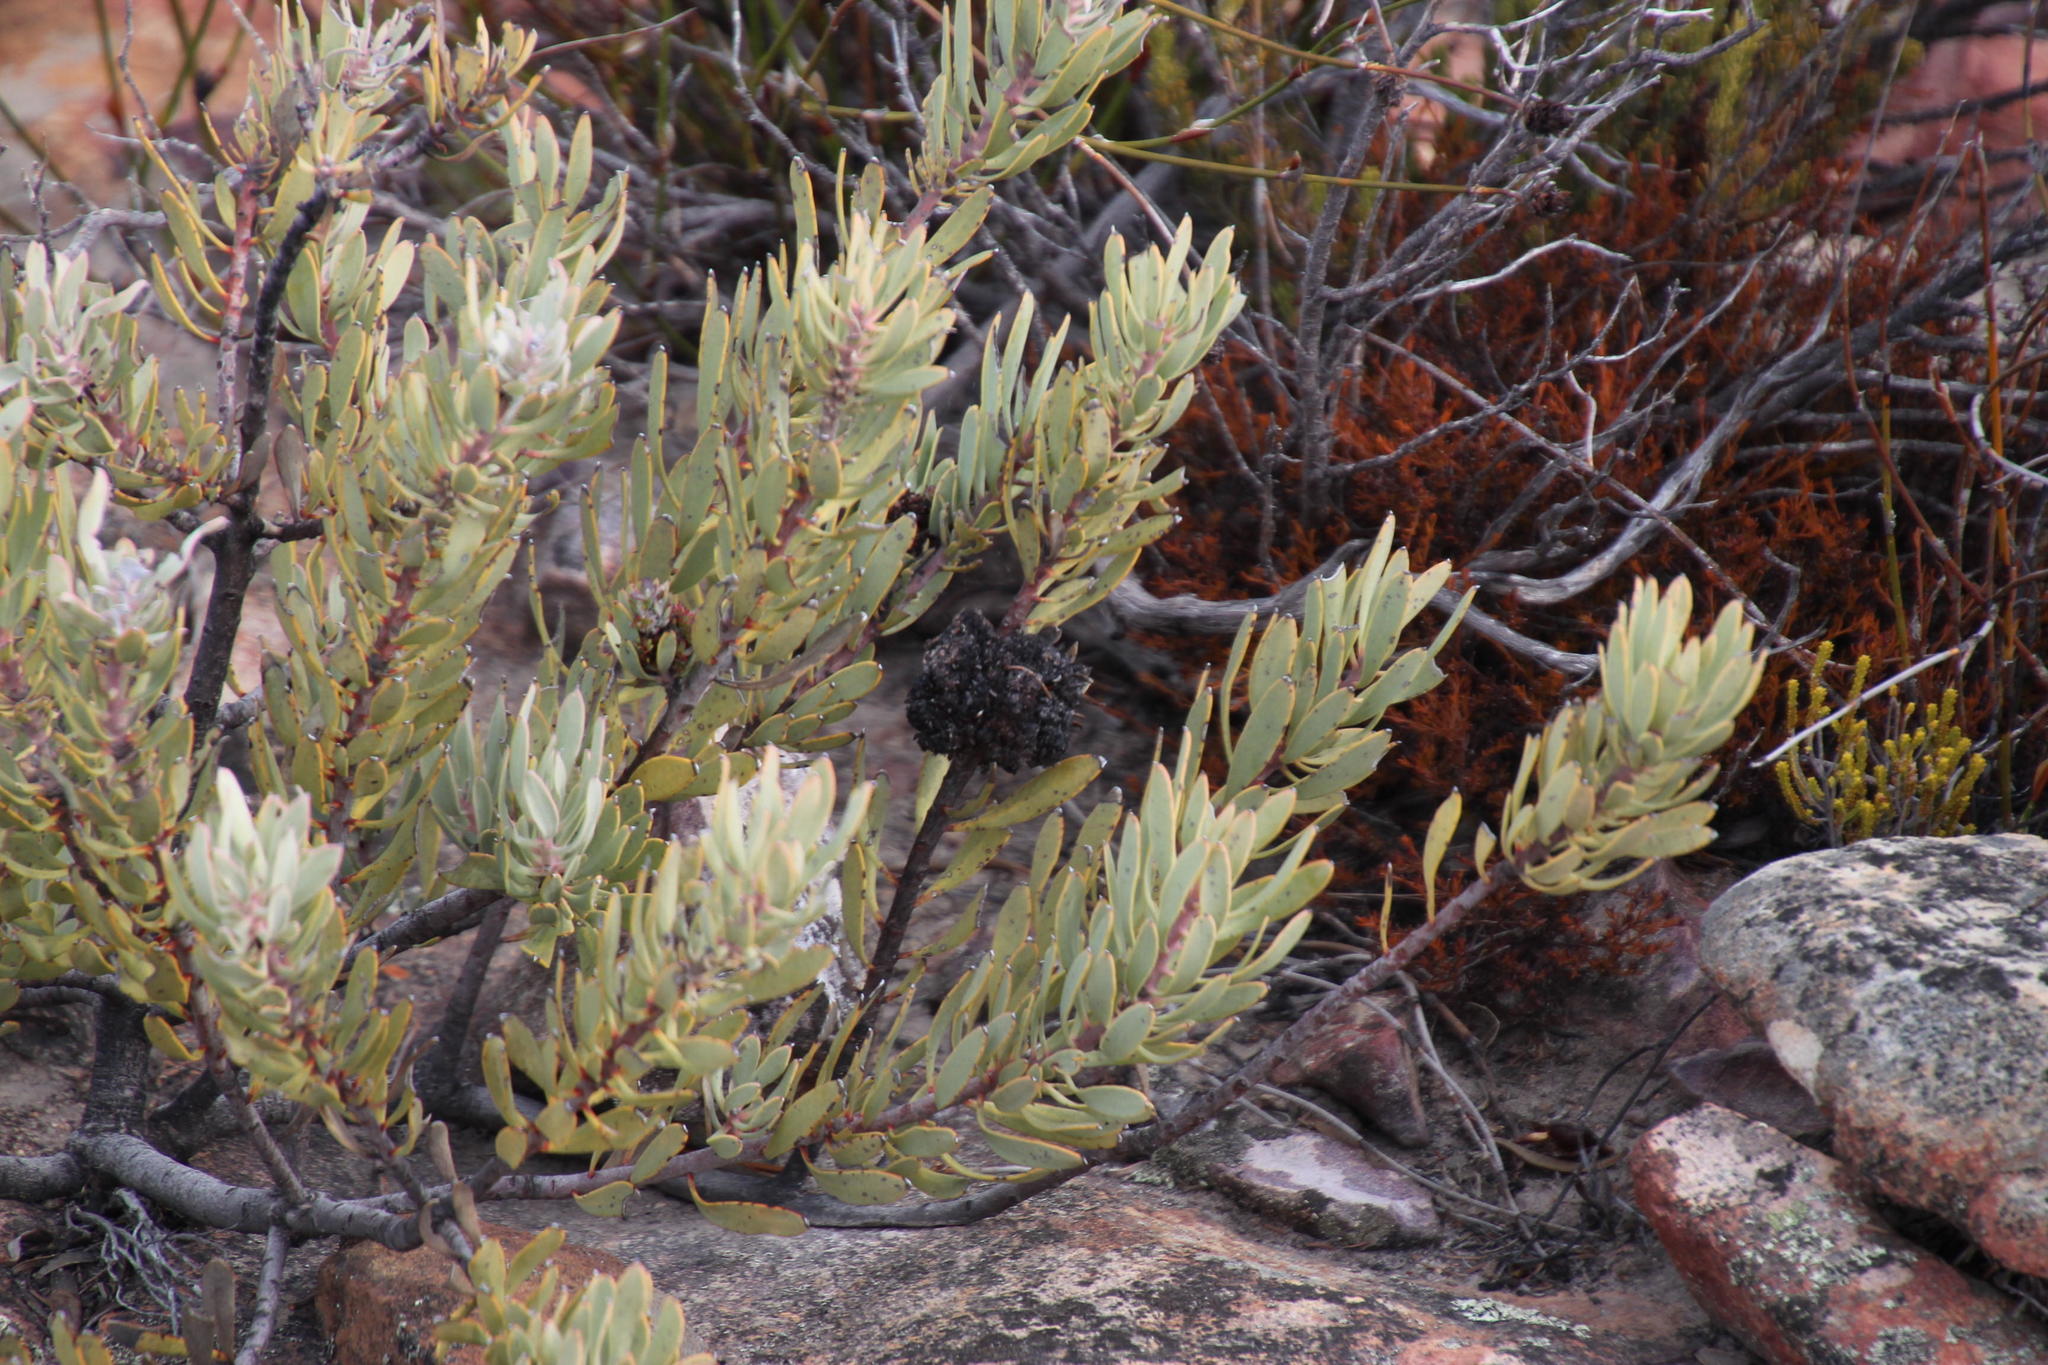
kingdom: Plantae
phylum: Tracheophyta
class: Magnoliopsida
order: Proteales
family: Proteaceae
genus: Protea
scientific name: Protea pendula
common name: Nodding sugarbush
